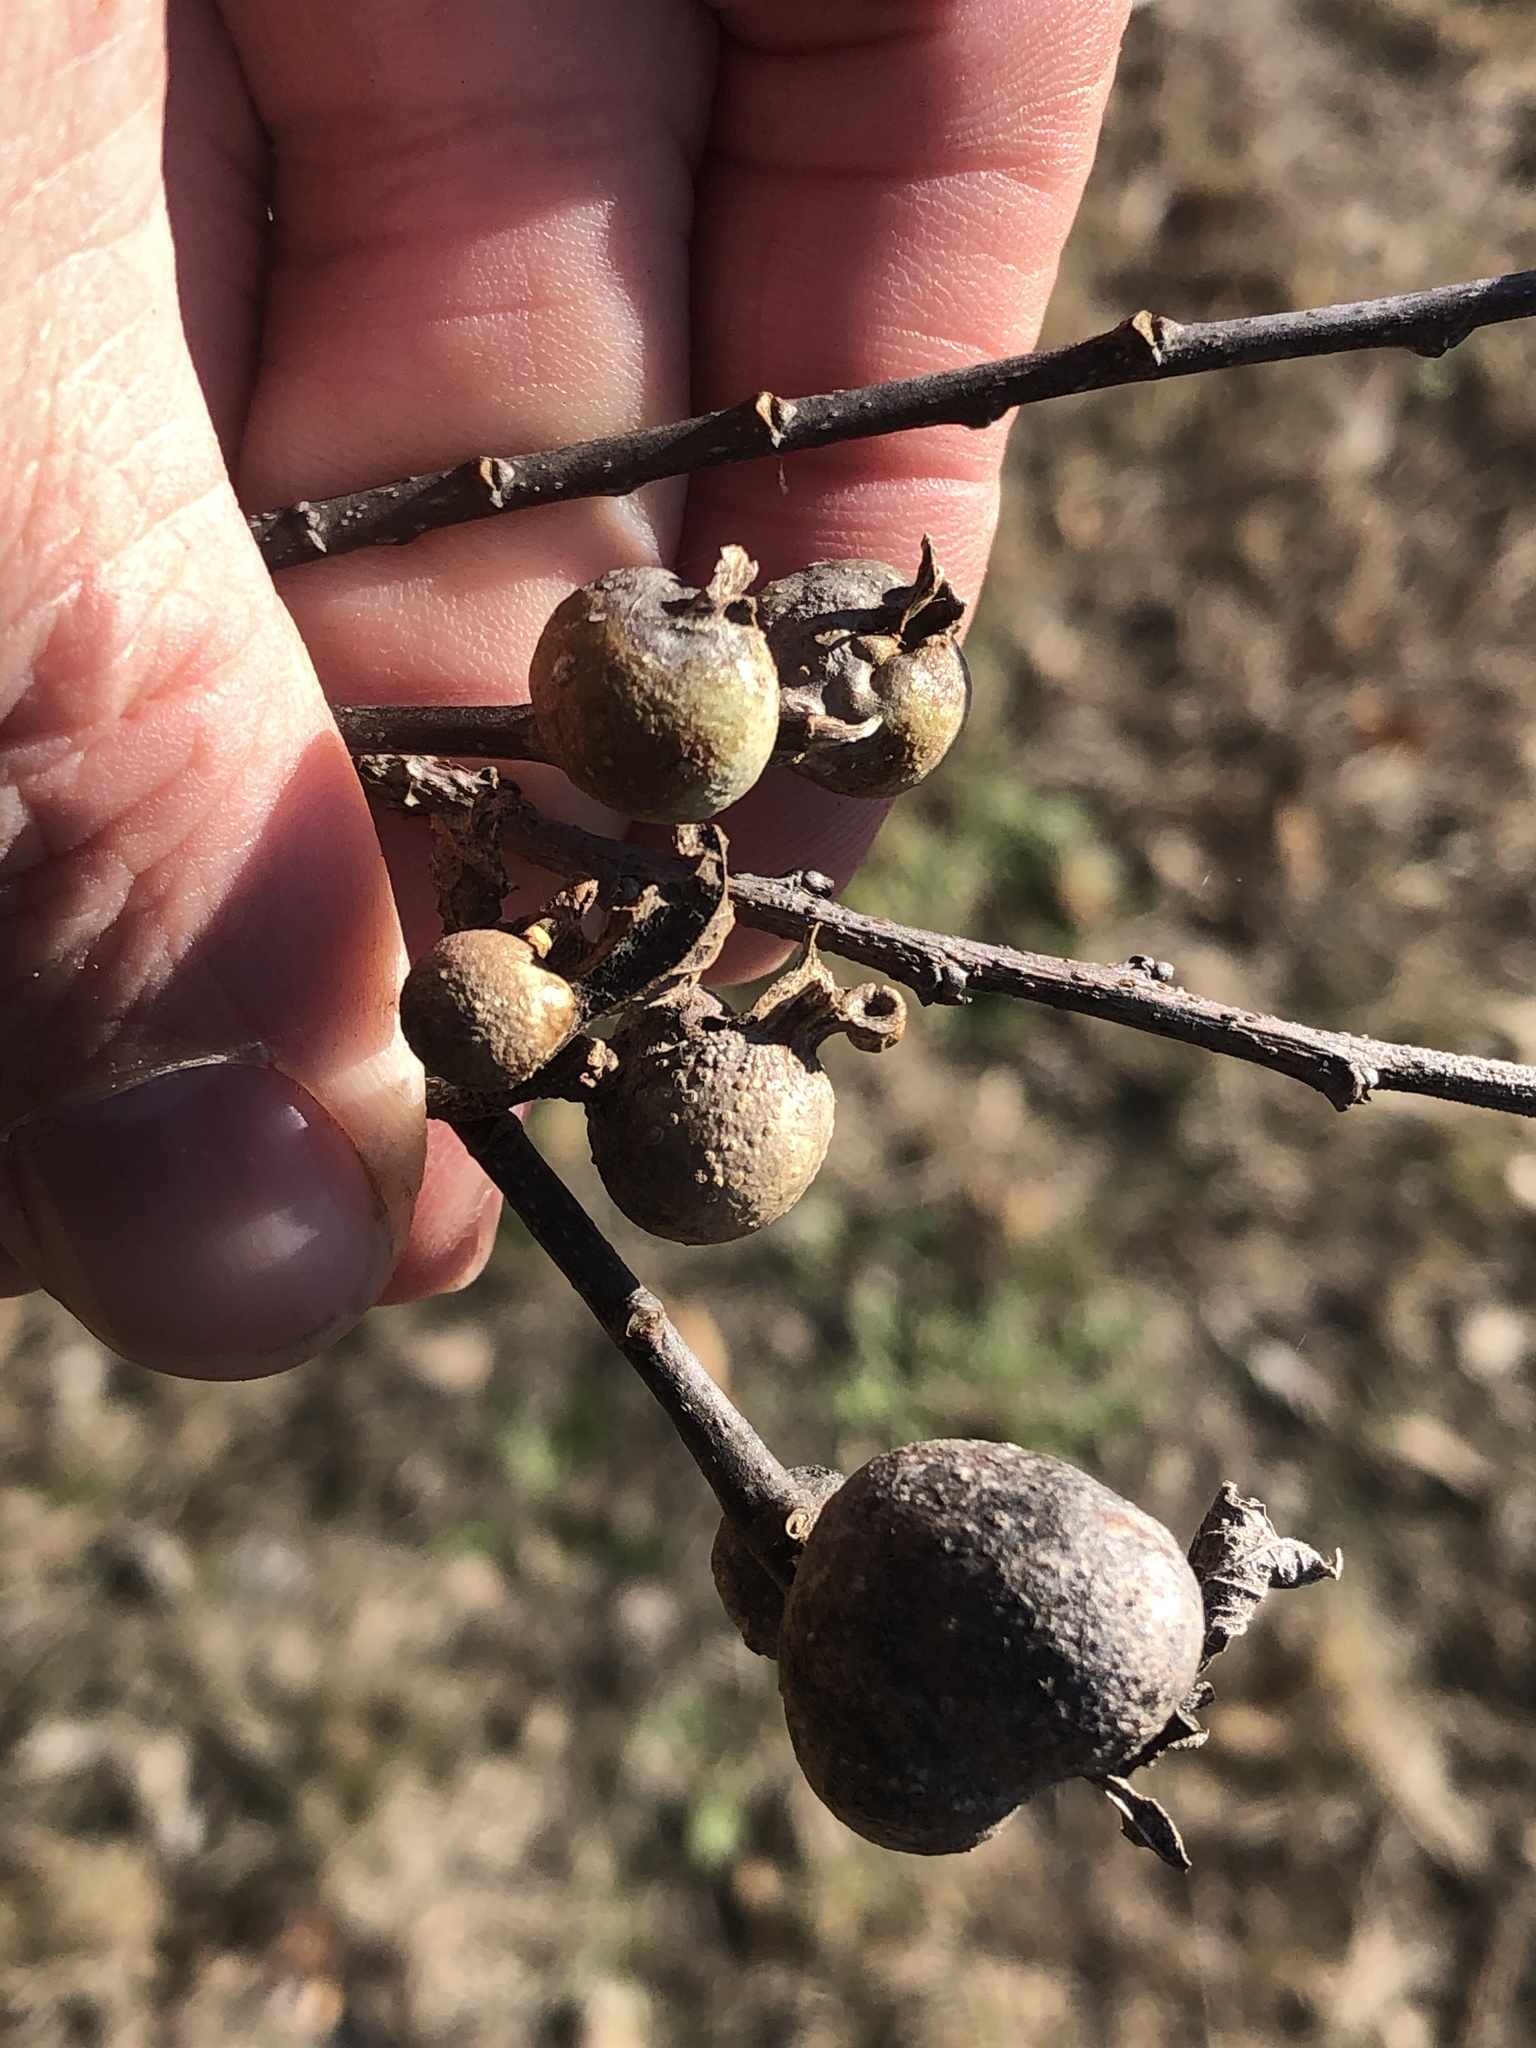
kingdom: Animalia
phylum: Arthropoda
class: Insecta
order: Hemiptera
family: Aphalaridae
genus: Pachypsylla
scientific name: Pachypsylla venusta
